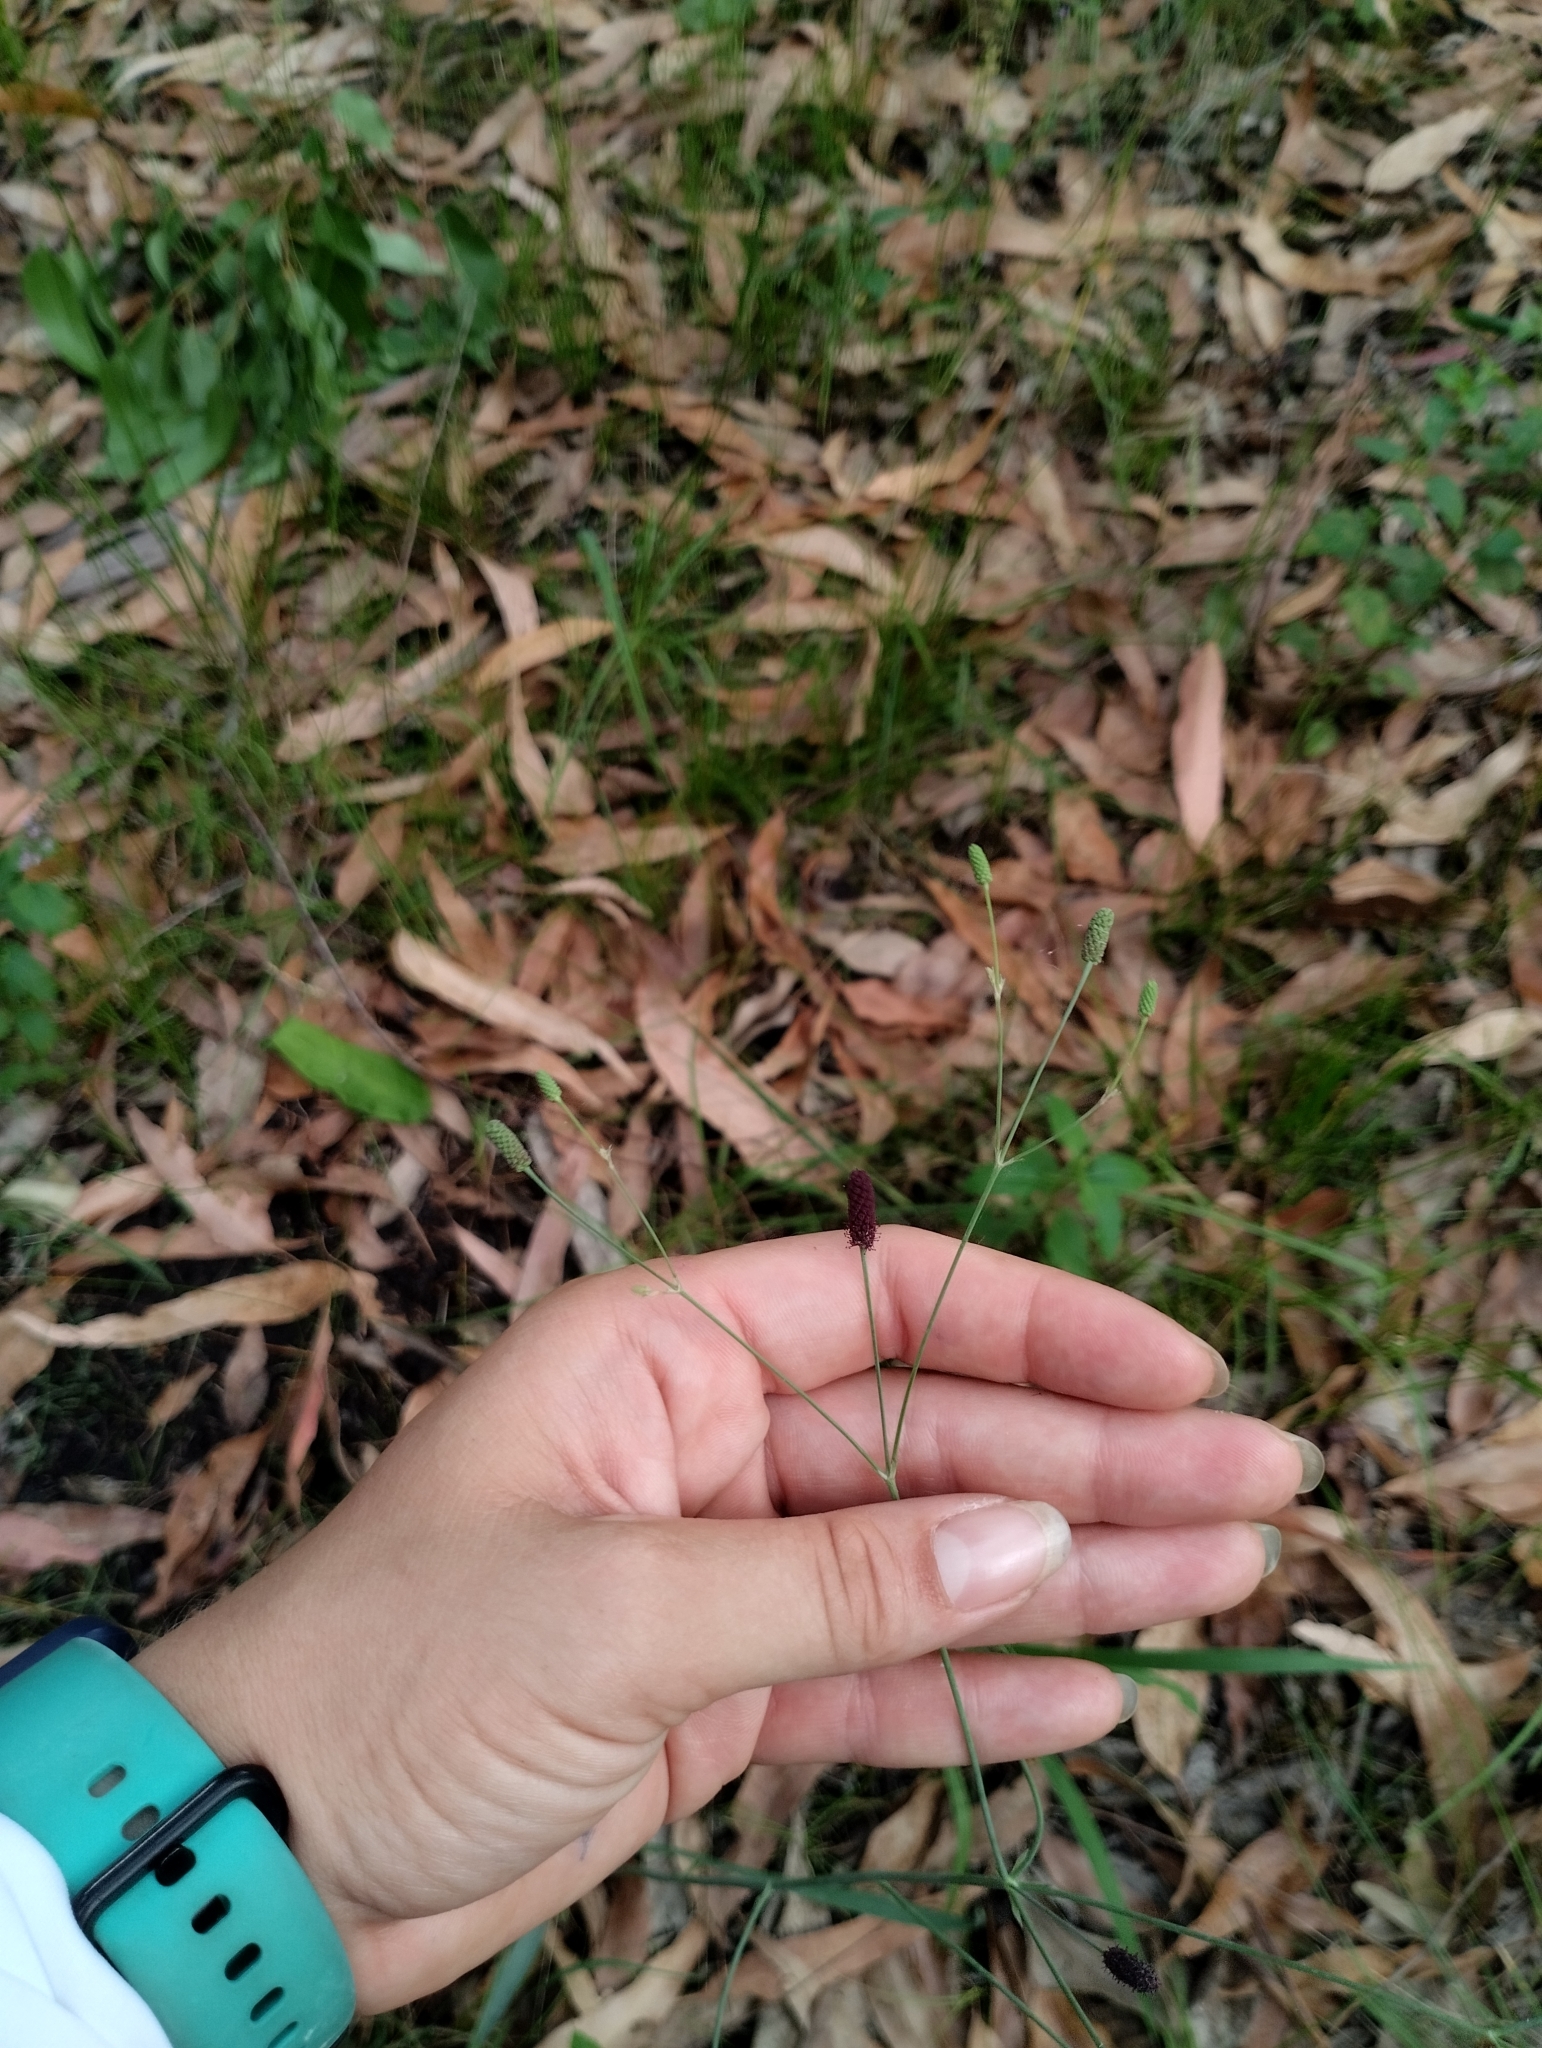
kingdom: Plantae
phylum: Tracheophyta
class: Magnoliopsida
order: Apiales
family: Apiaceae
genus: Eryngium
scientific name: Eryngium ebracteatum
